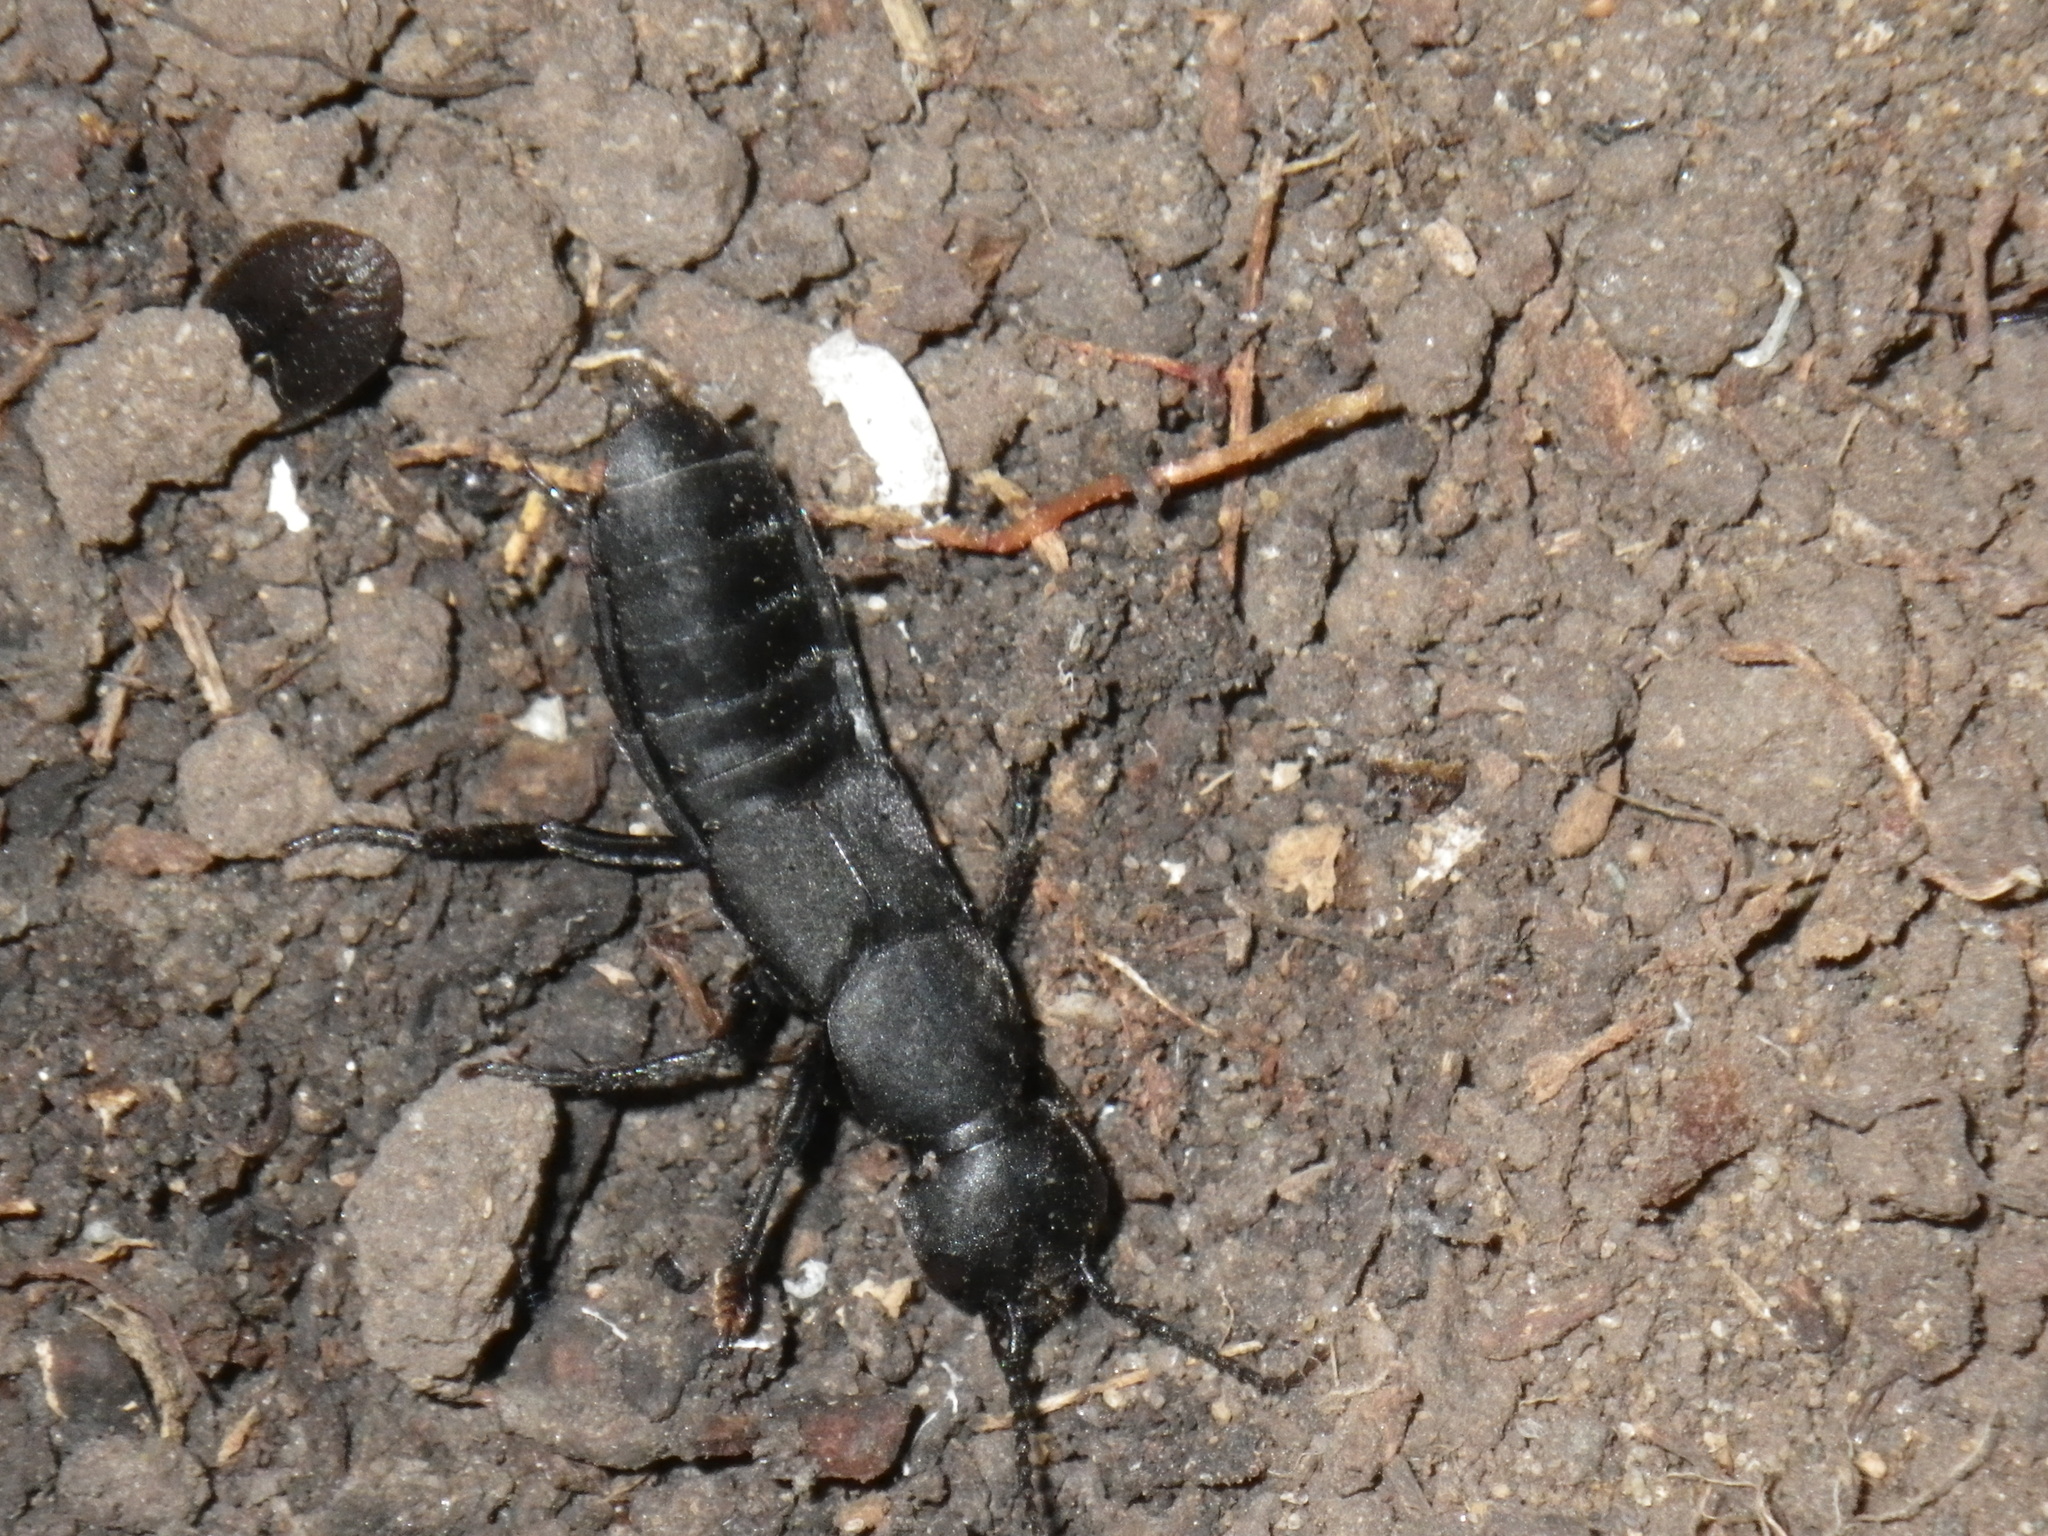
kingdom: Animalia
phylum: Arthropoda
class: Insecta
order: Coleoptera
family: Staphylinidae
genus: Ocypus
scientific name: Ocypus olens
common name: Devil's coach-horse
